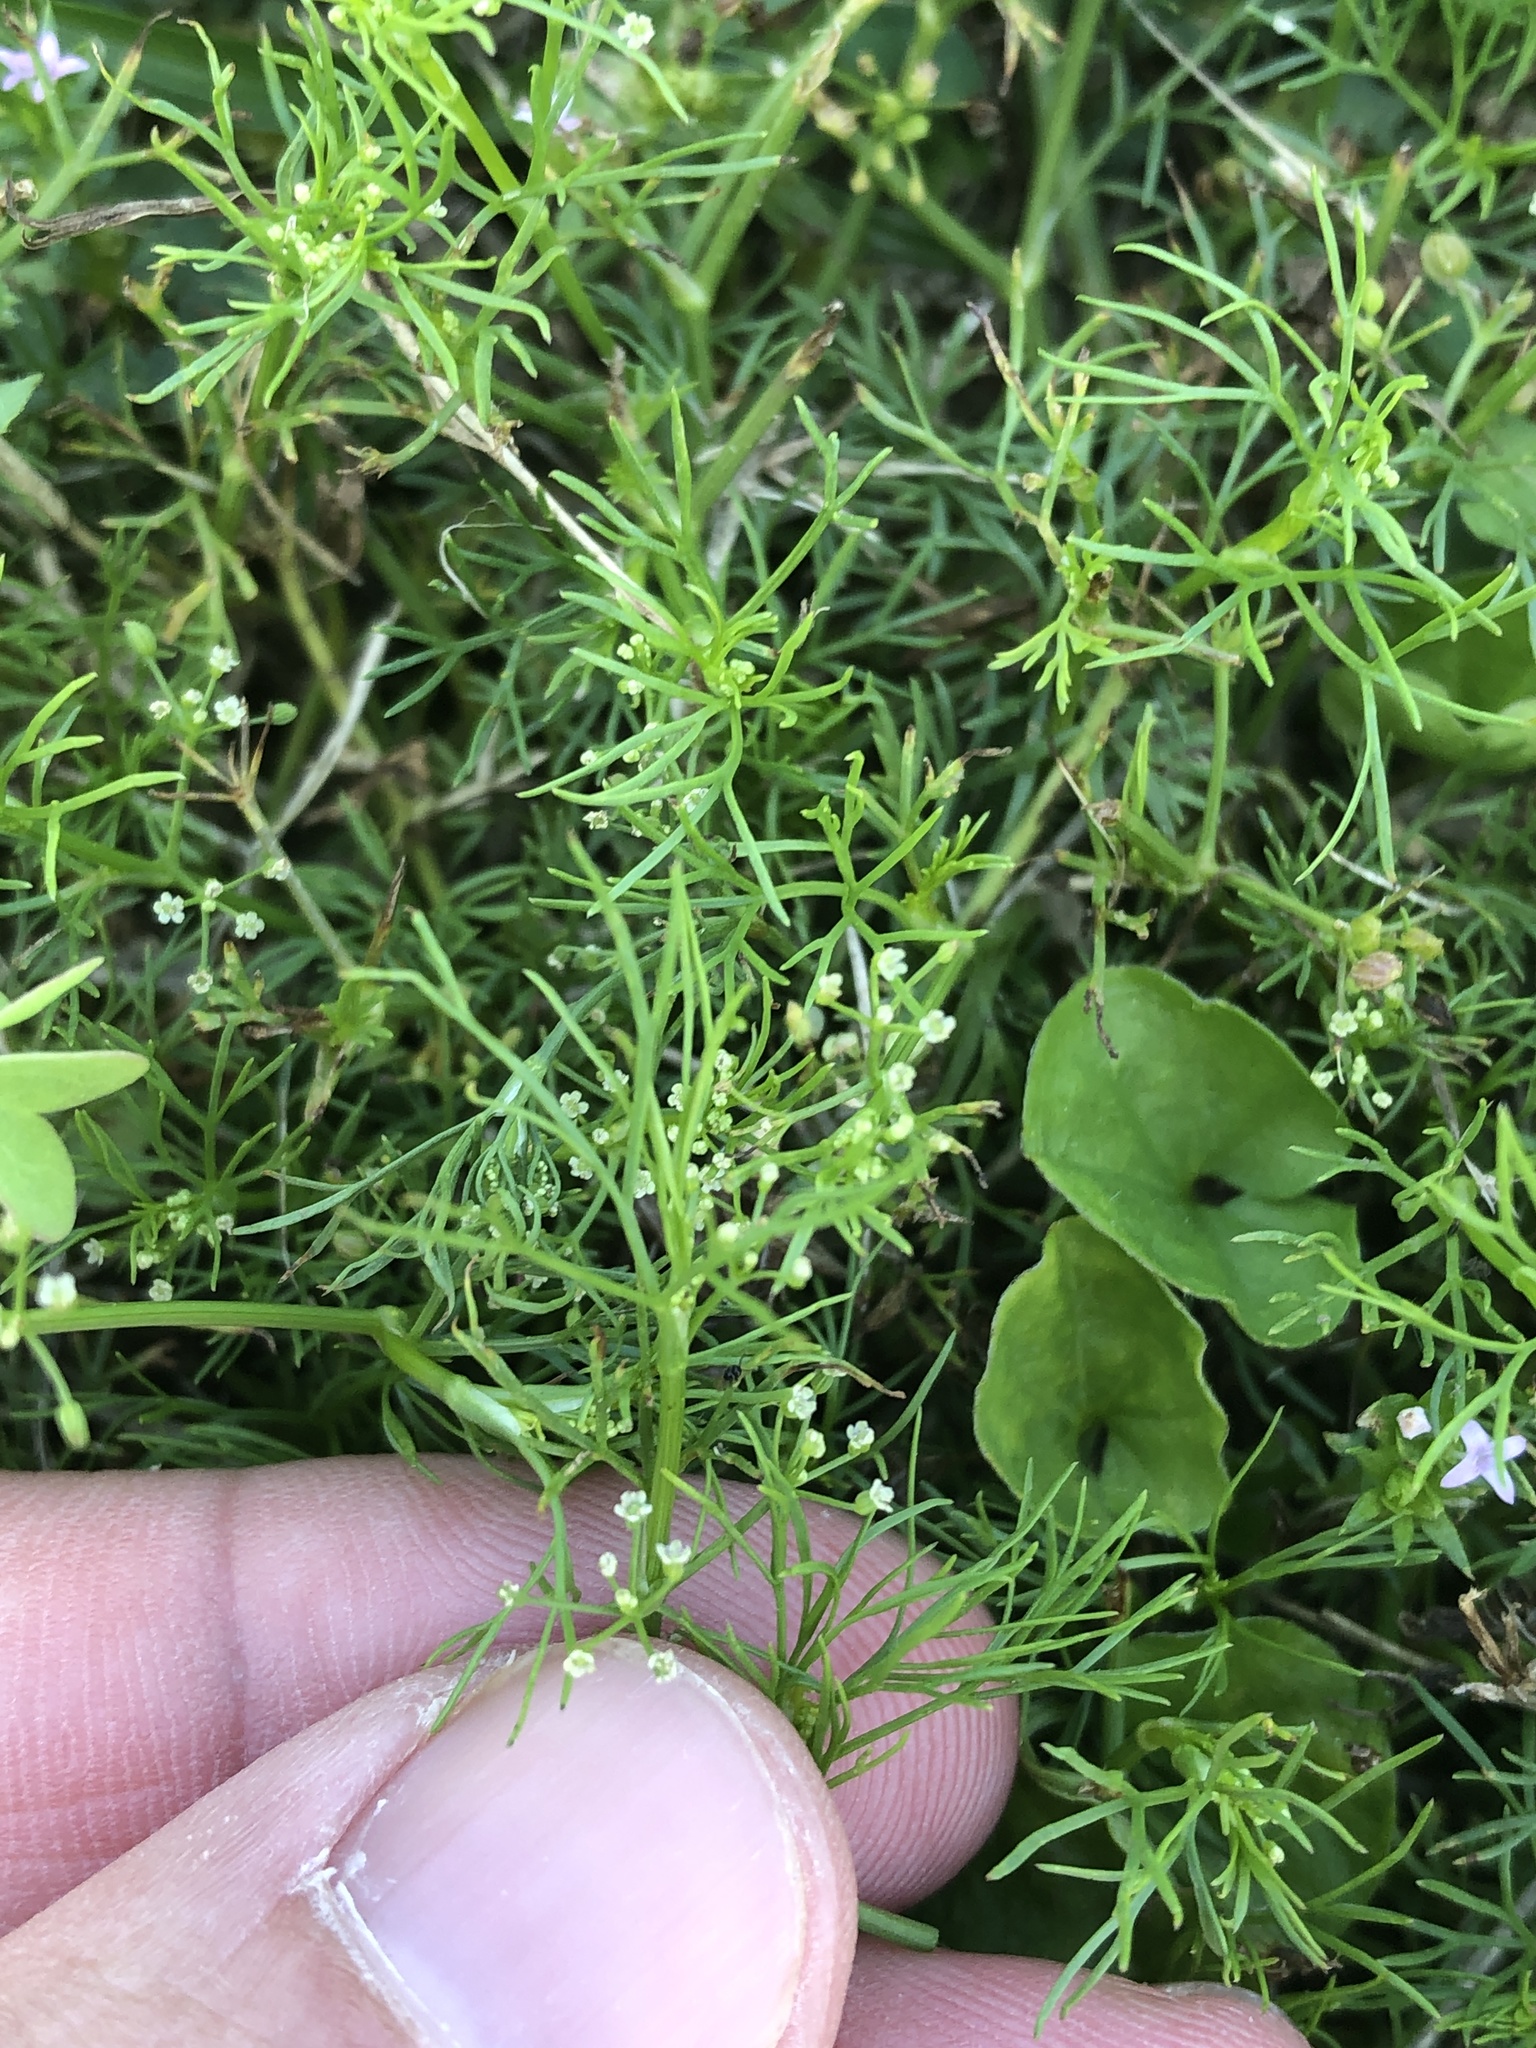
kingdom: Plantae
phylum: Tracheophyta
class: Magnoliopsida
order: Apiales
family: Apiaceae
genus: Cyclospermum
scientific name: Cyclospermum leptophyllum
